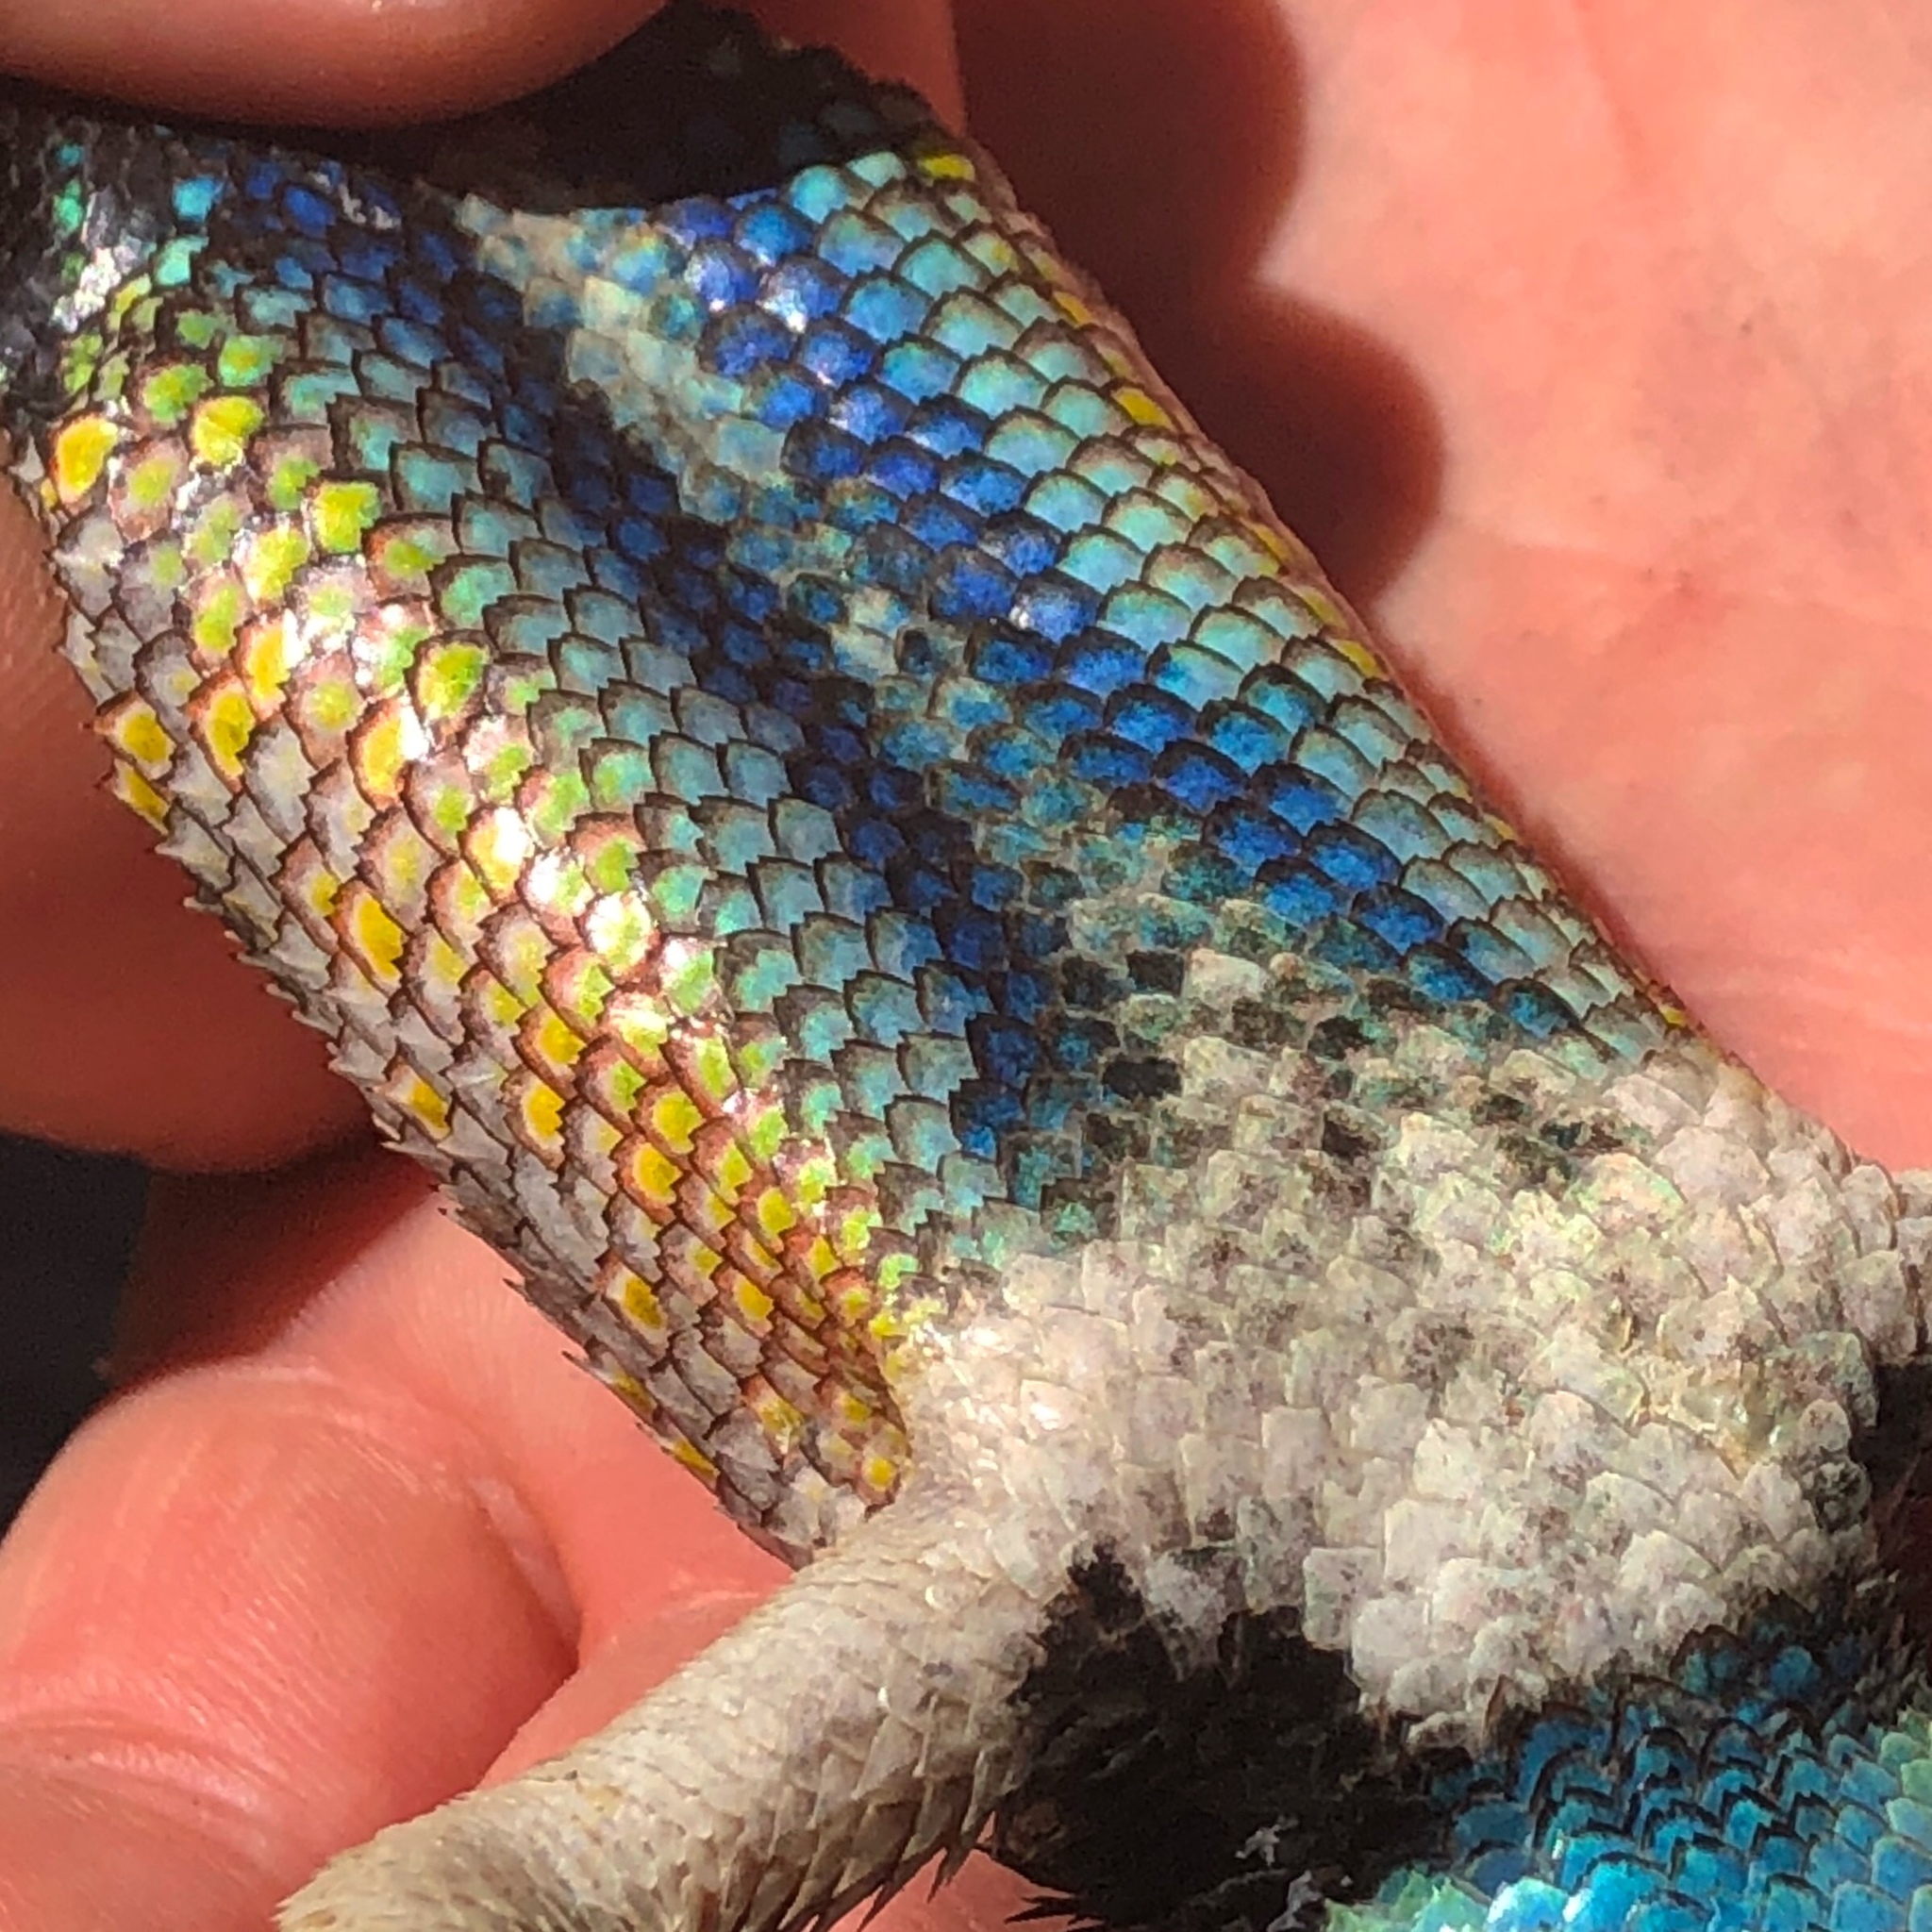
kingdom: Animalia
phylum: Chordata
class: Squamata
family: Phrynosomatidae
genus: Sceloporus
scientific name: Sceloporus uniformis
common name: Yellow-backed spiny lizard
